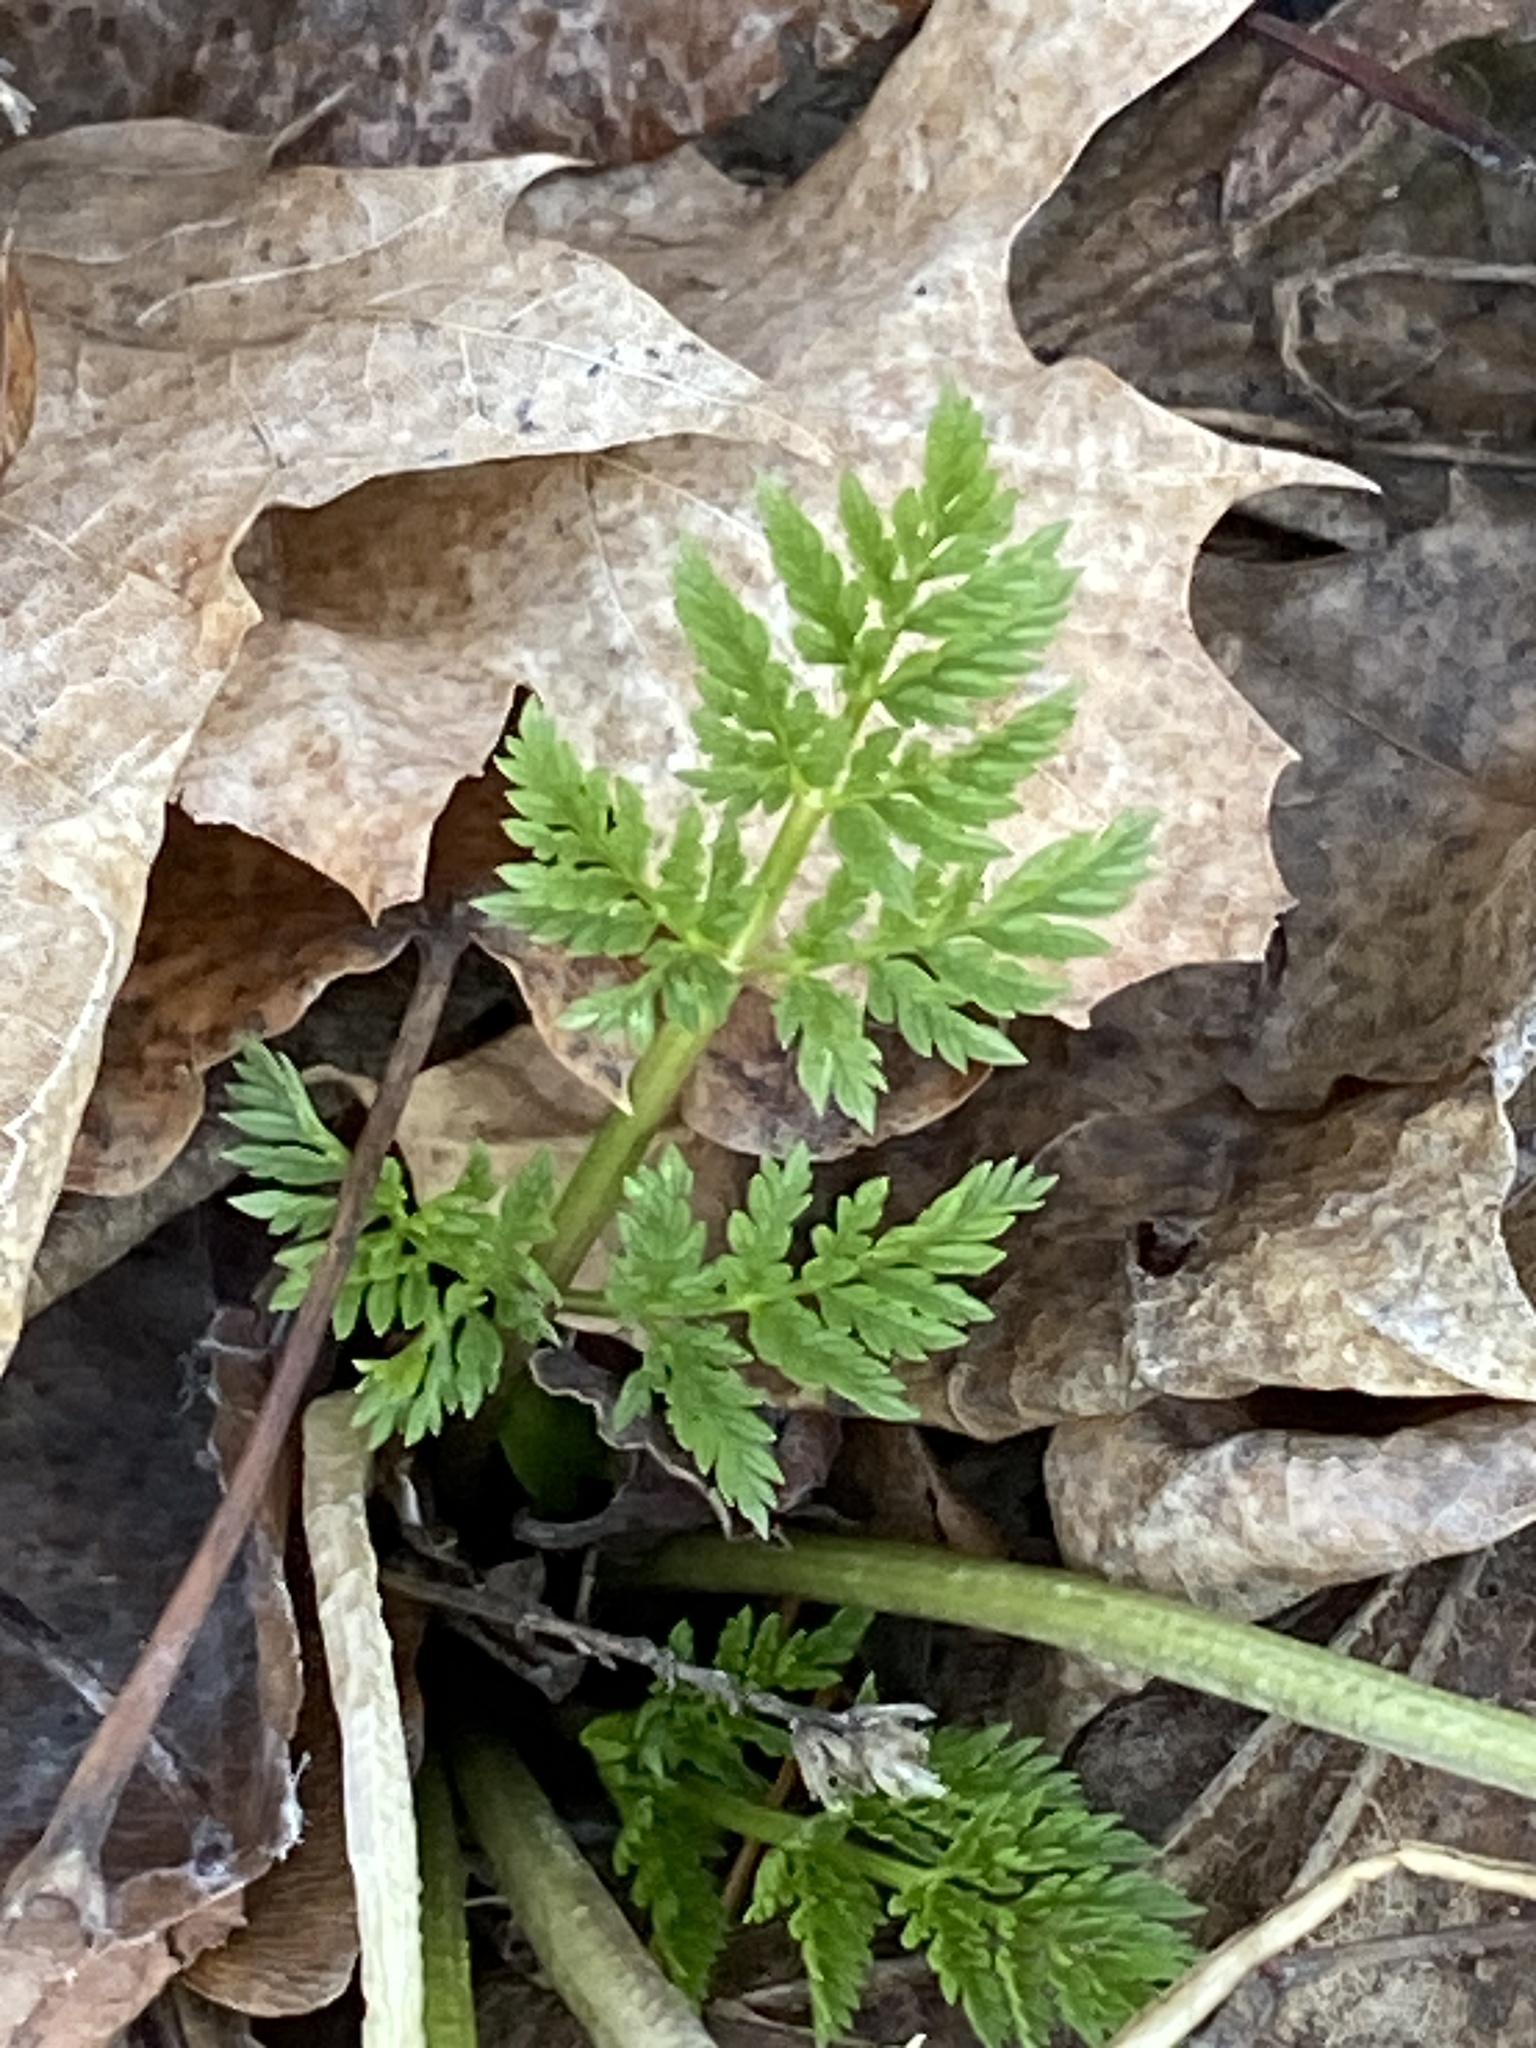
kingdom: Plantae
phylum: Tracheophyta
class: Magnoliopsida
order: Apiales
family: Apiaceae
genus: Conium
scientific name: Conium maculatum
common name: Hemlock
